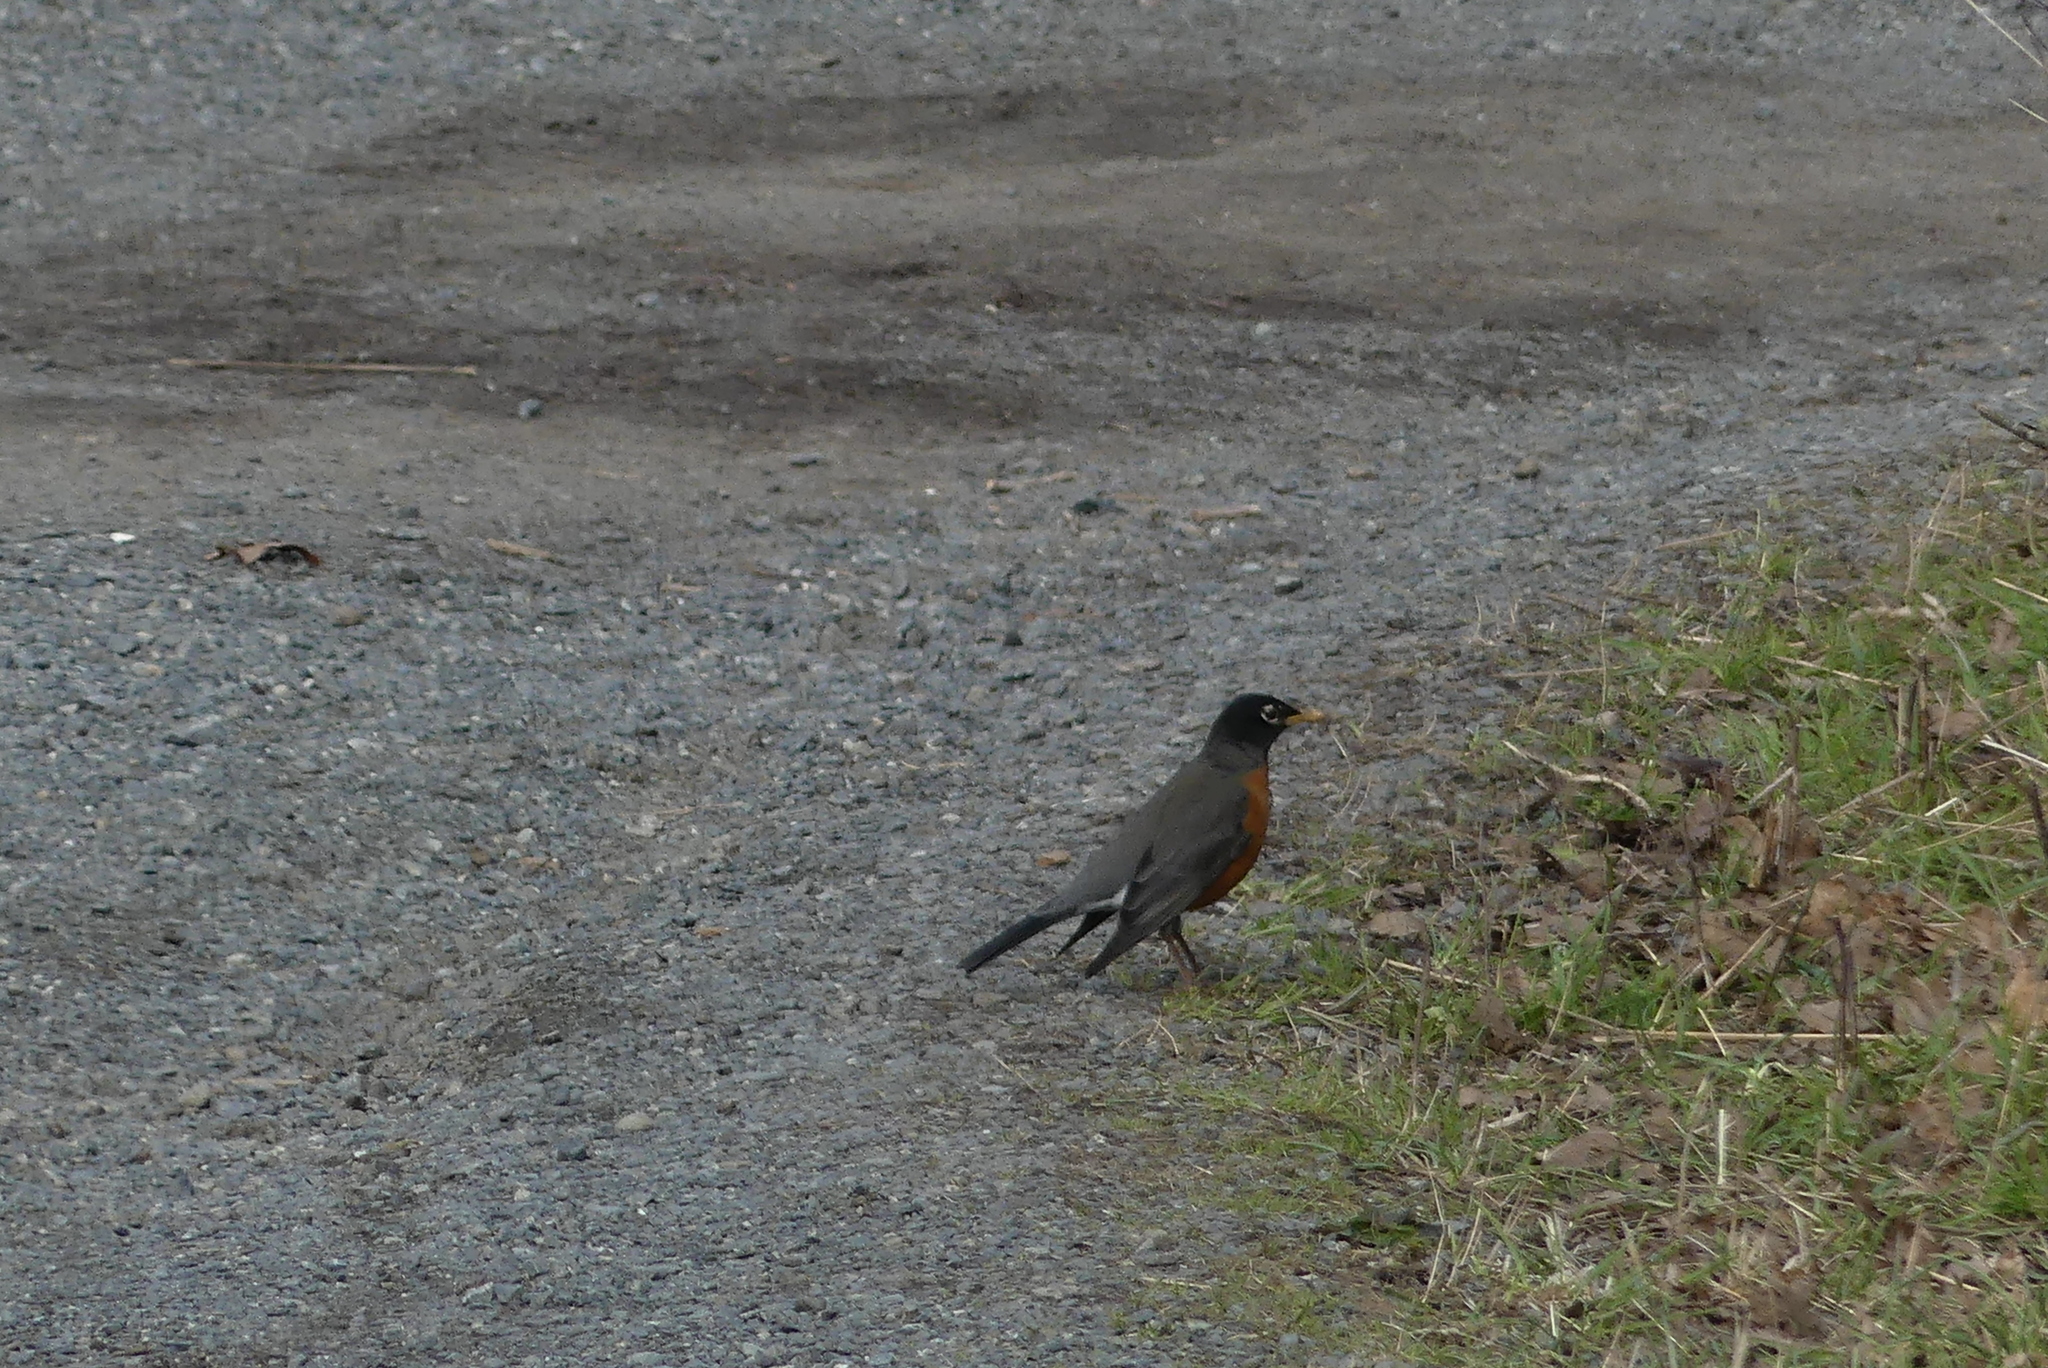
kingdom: Animalia
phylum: Chordata
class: Aves
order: Passeriformes
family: Turdidae
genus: Turdus
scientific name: Turdus migratorius
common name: American robin
